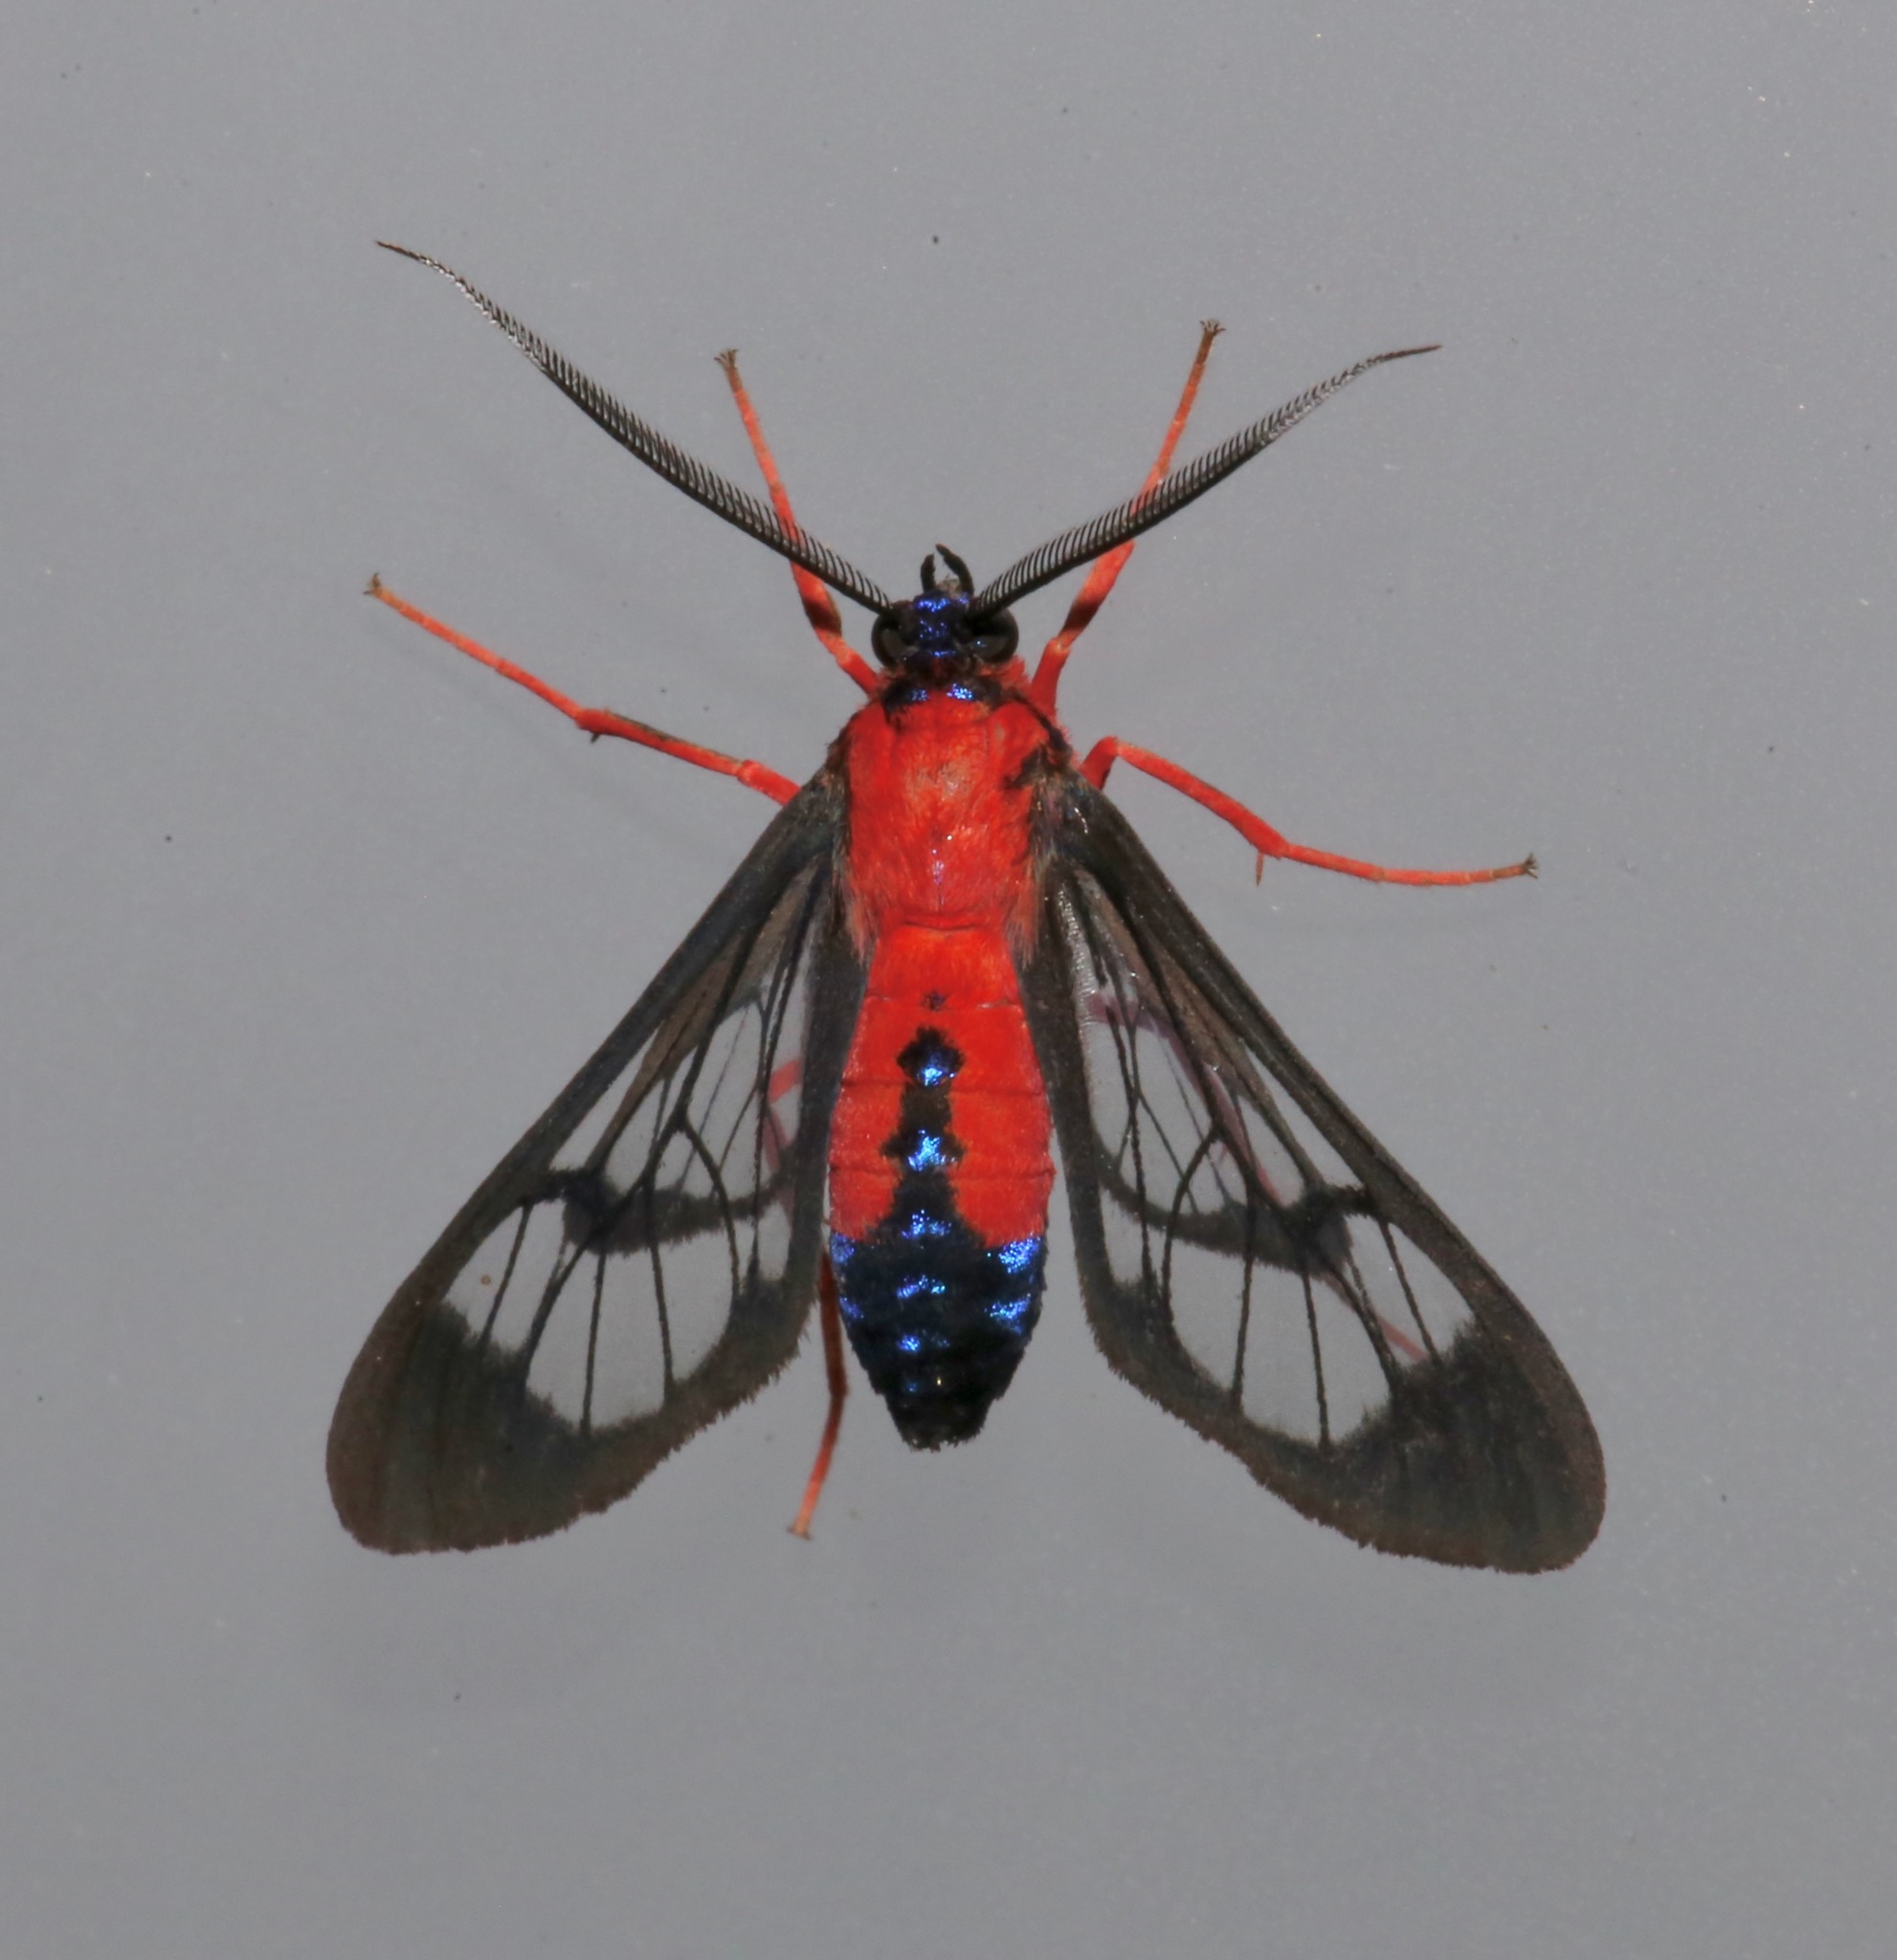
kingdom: Animalia
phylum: Arthropoda
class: Insecta
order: Lepidoptera
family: Erebidae
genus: Cosmosoma
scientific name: Cosmosoma myrodora
